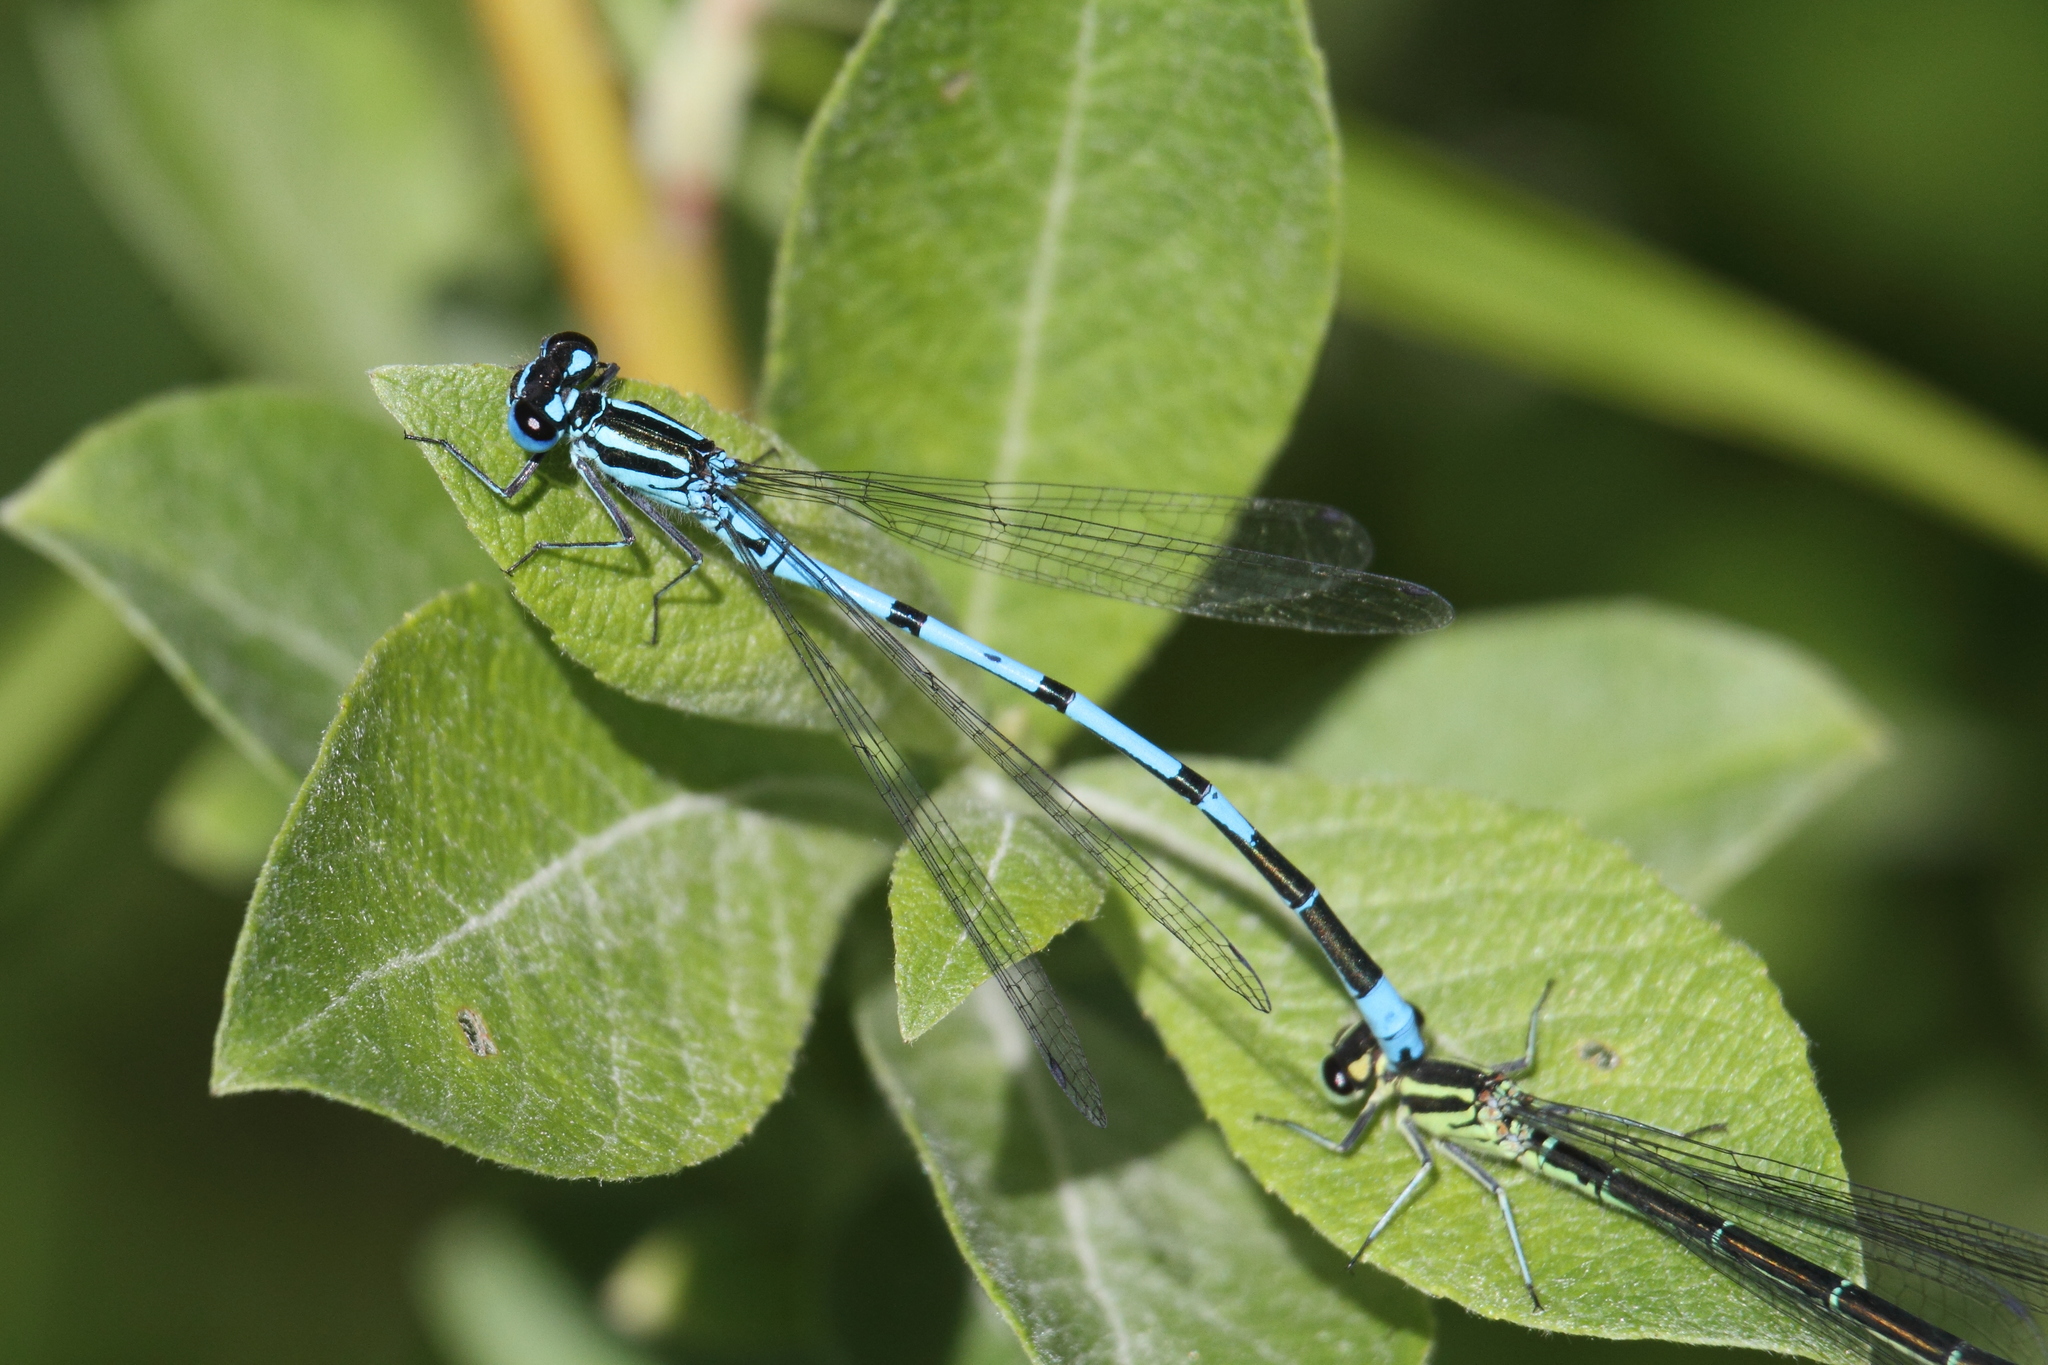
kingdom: Animalia
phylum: Arthropoda
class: Insecta
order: Odonata
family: Coenagrionidae
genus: Coenagrion
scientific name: Coenagrion puella
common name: Azure damselfly
